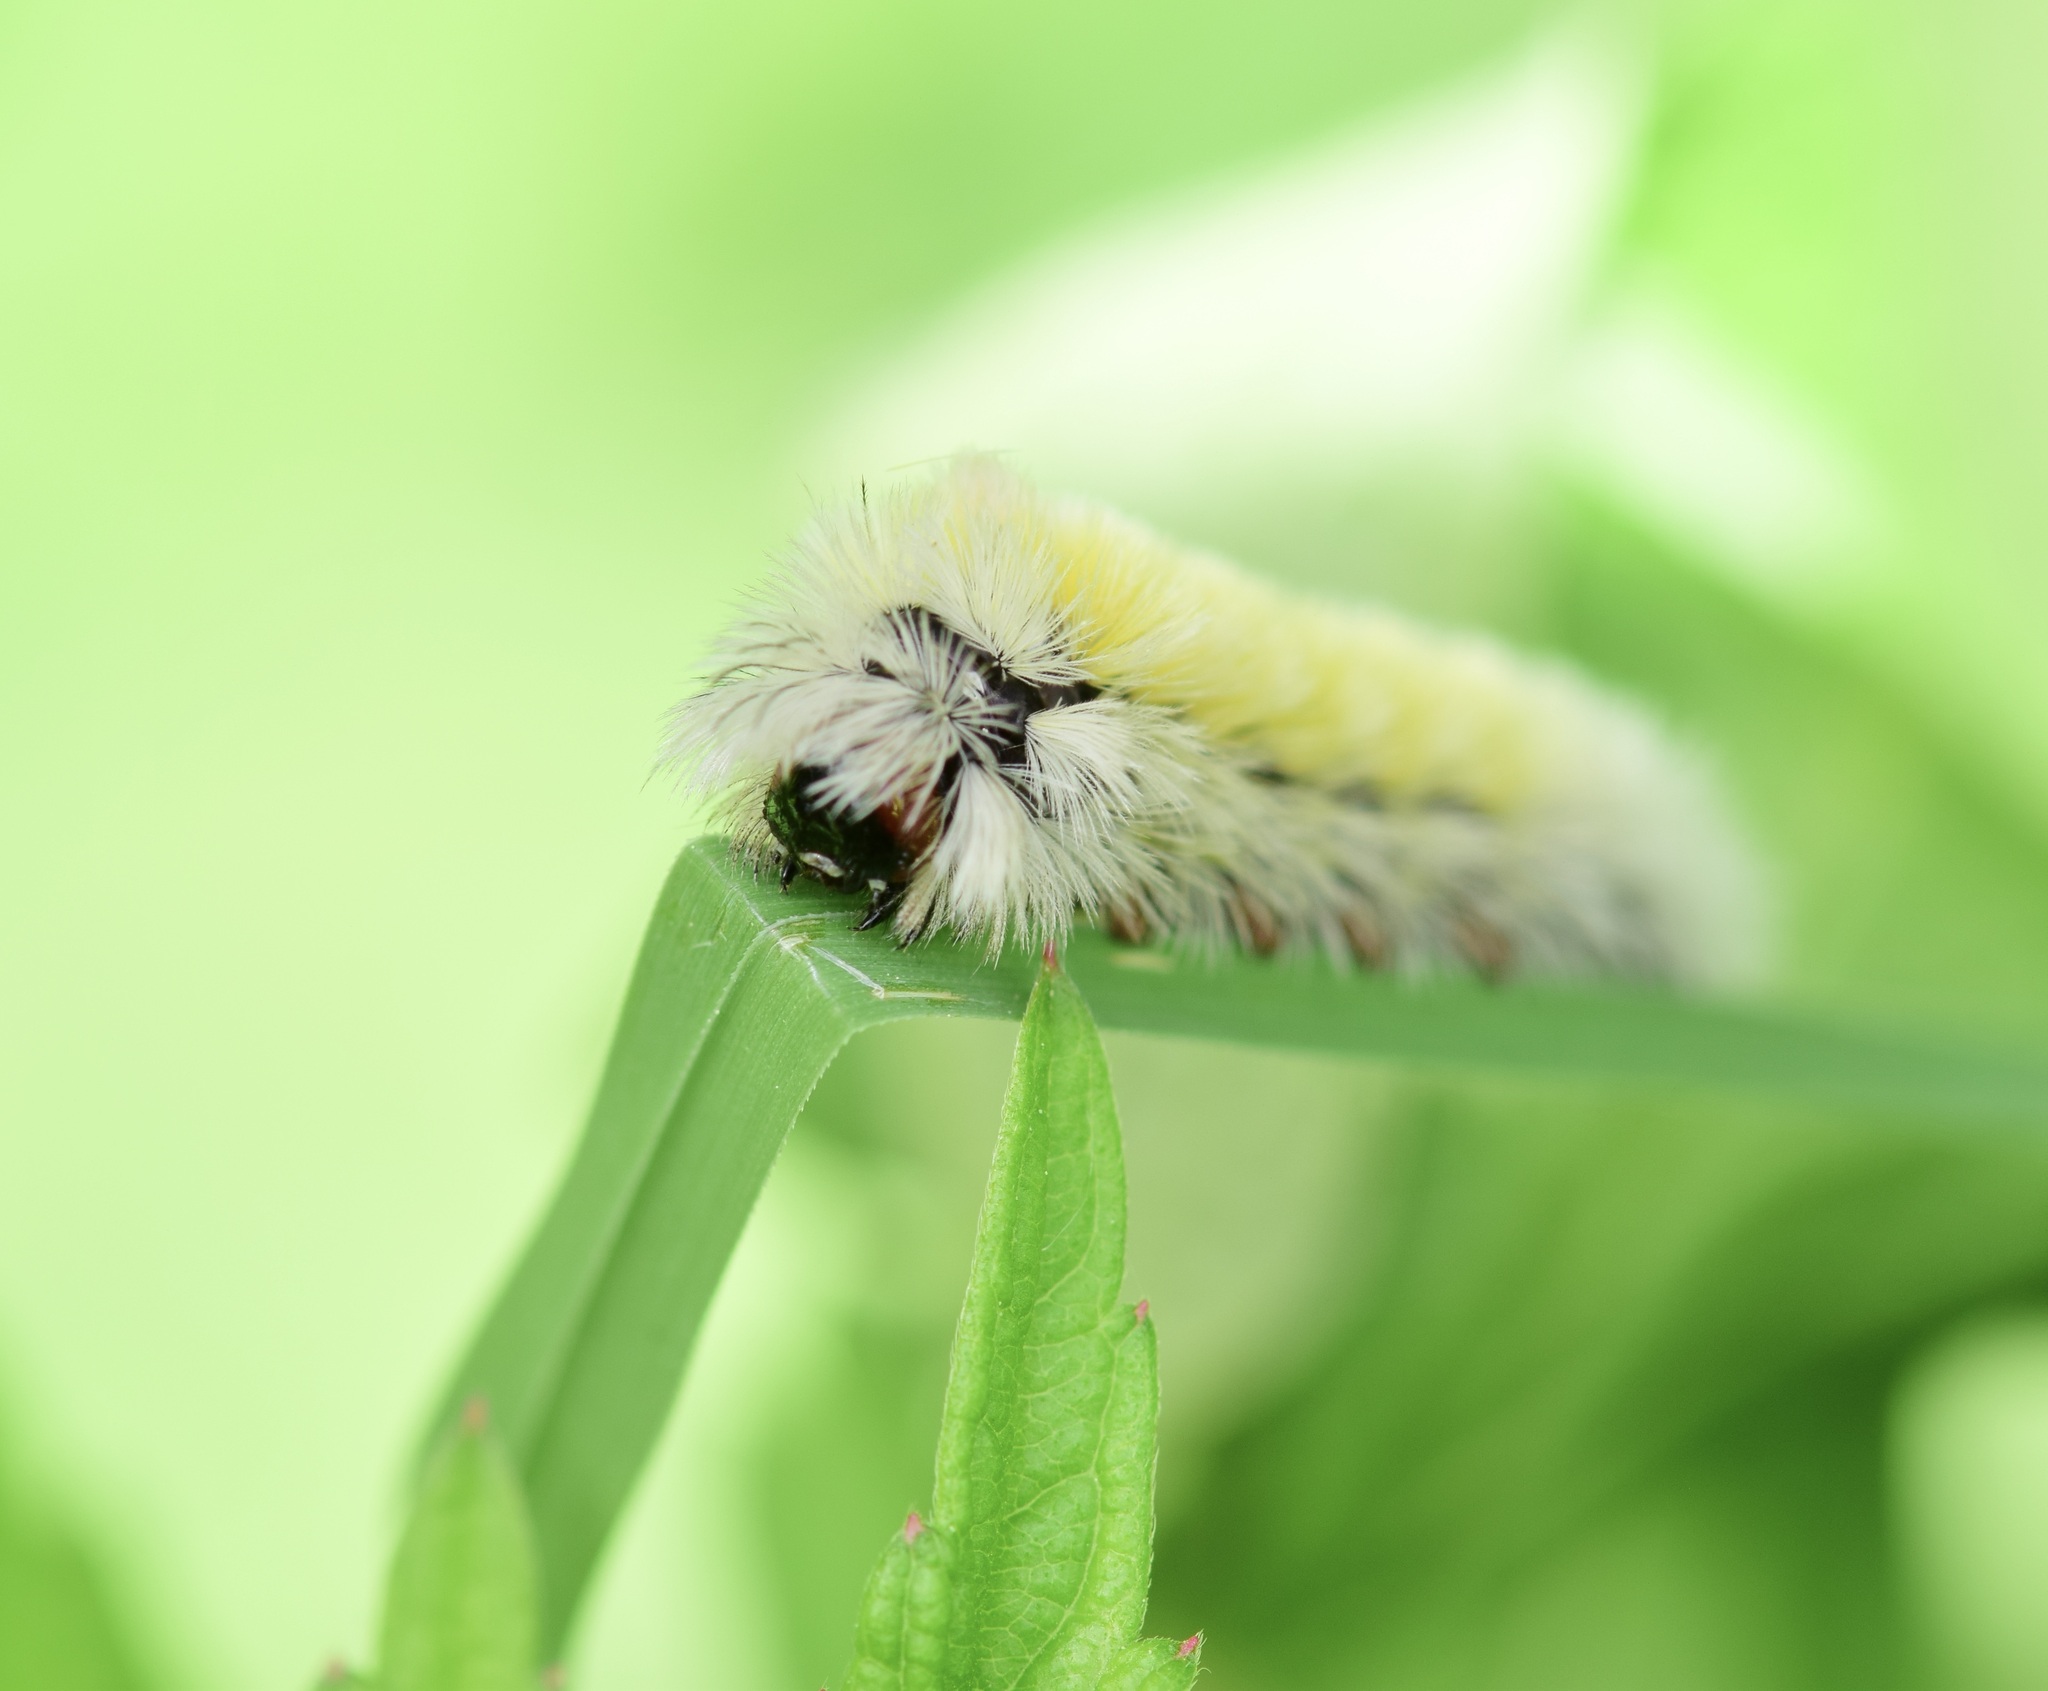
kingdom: Animalia
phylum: Arthropoda
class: Insecta
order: Lepidoptera
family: Erebidae
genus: Ctenucha
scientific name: Ctenucha virginica
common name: Virginia ctenucha moth
